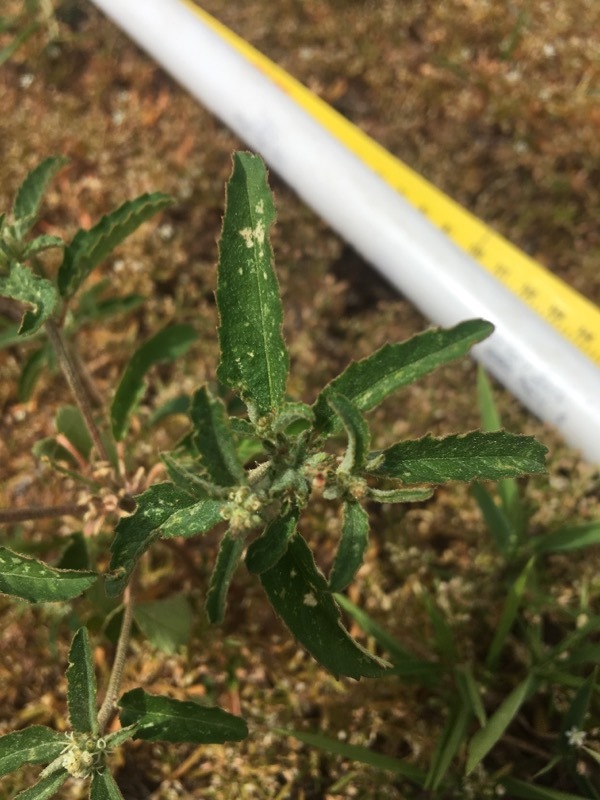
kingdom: Plantae
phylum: Tracheophyta
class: Magnoliopsida
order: Malpighiales
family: Euphorbiaceae
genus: Croton
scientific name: Croton glandulosus
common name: Tropic croton
